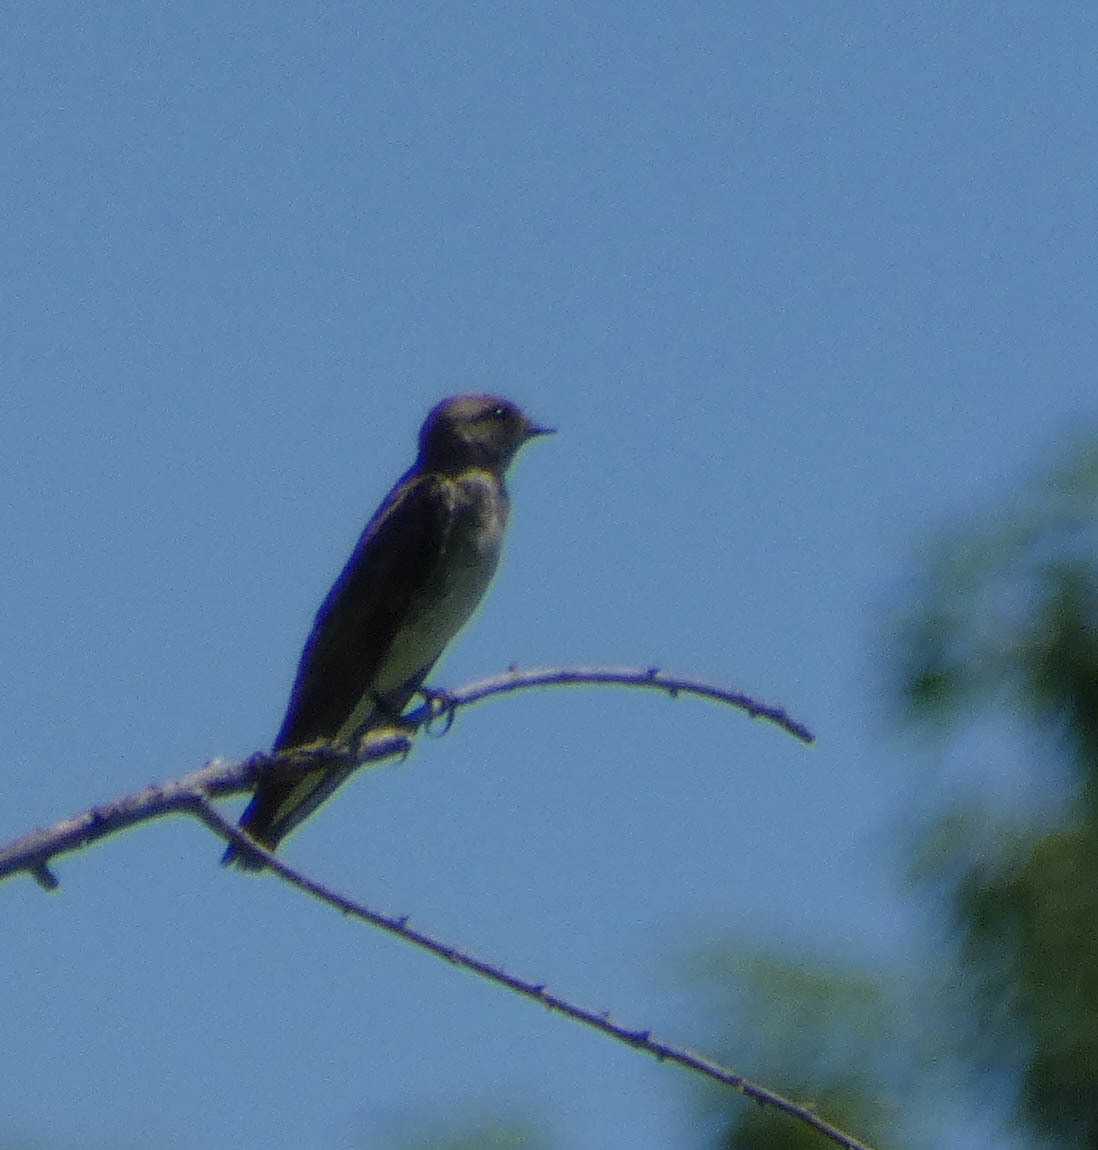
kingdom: Animalia
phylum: Chordata
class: Aves
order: Passeriformes
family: Hirundinidae
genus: Stelgidopteryx
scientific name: Stelgidopteryx serripennis
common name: Northern rough-winged swallow
